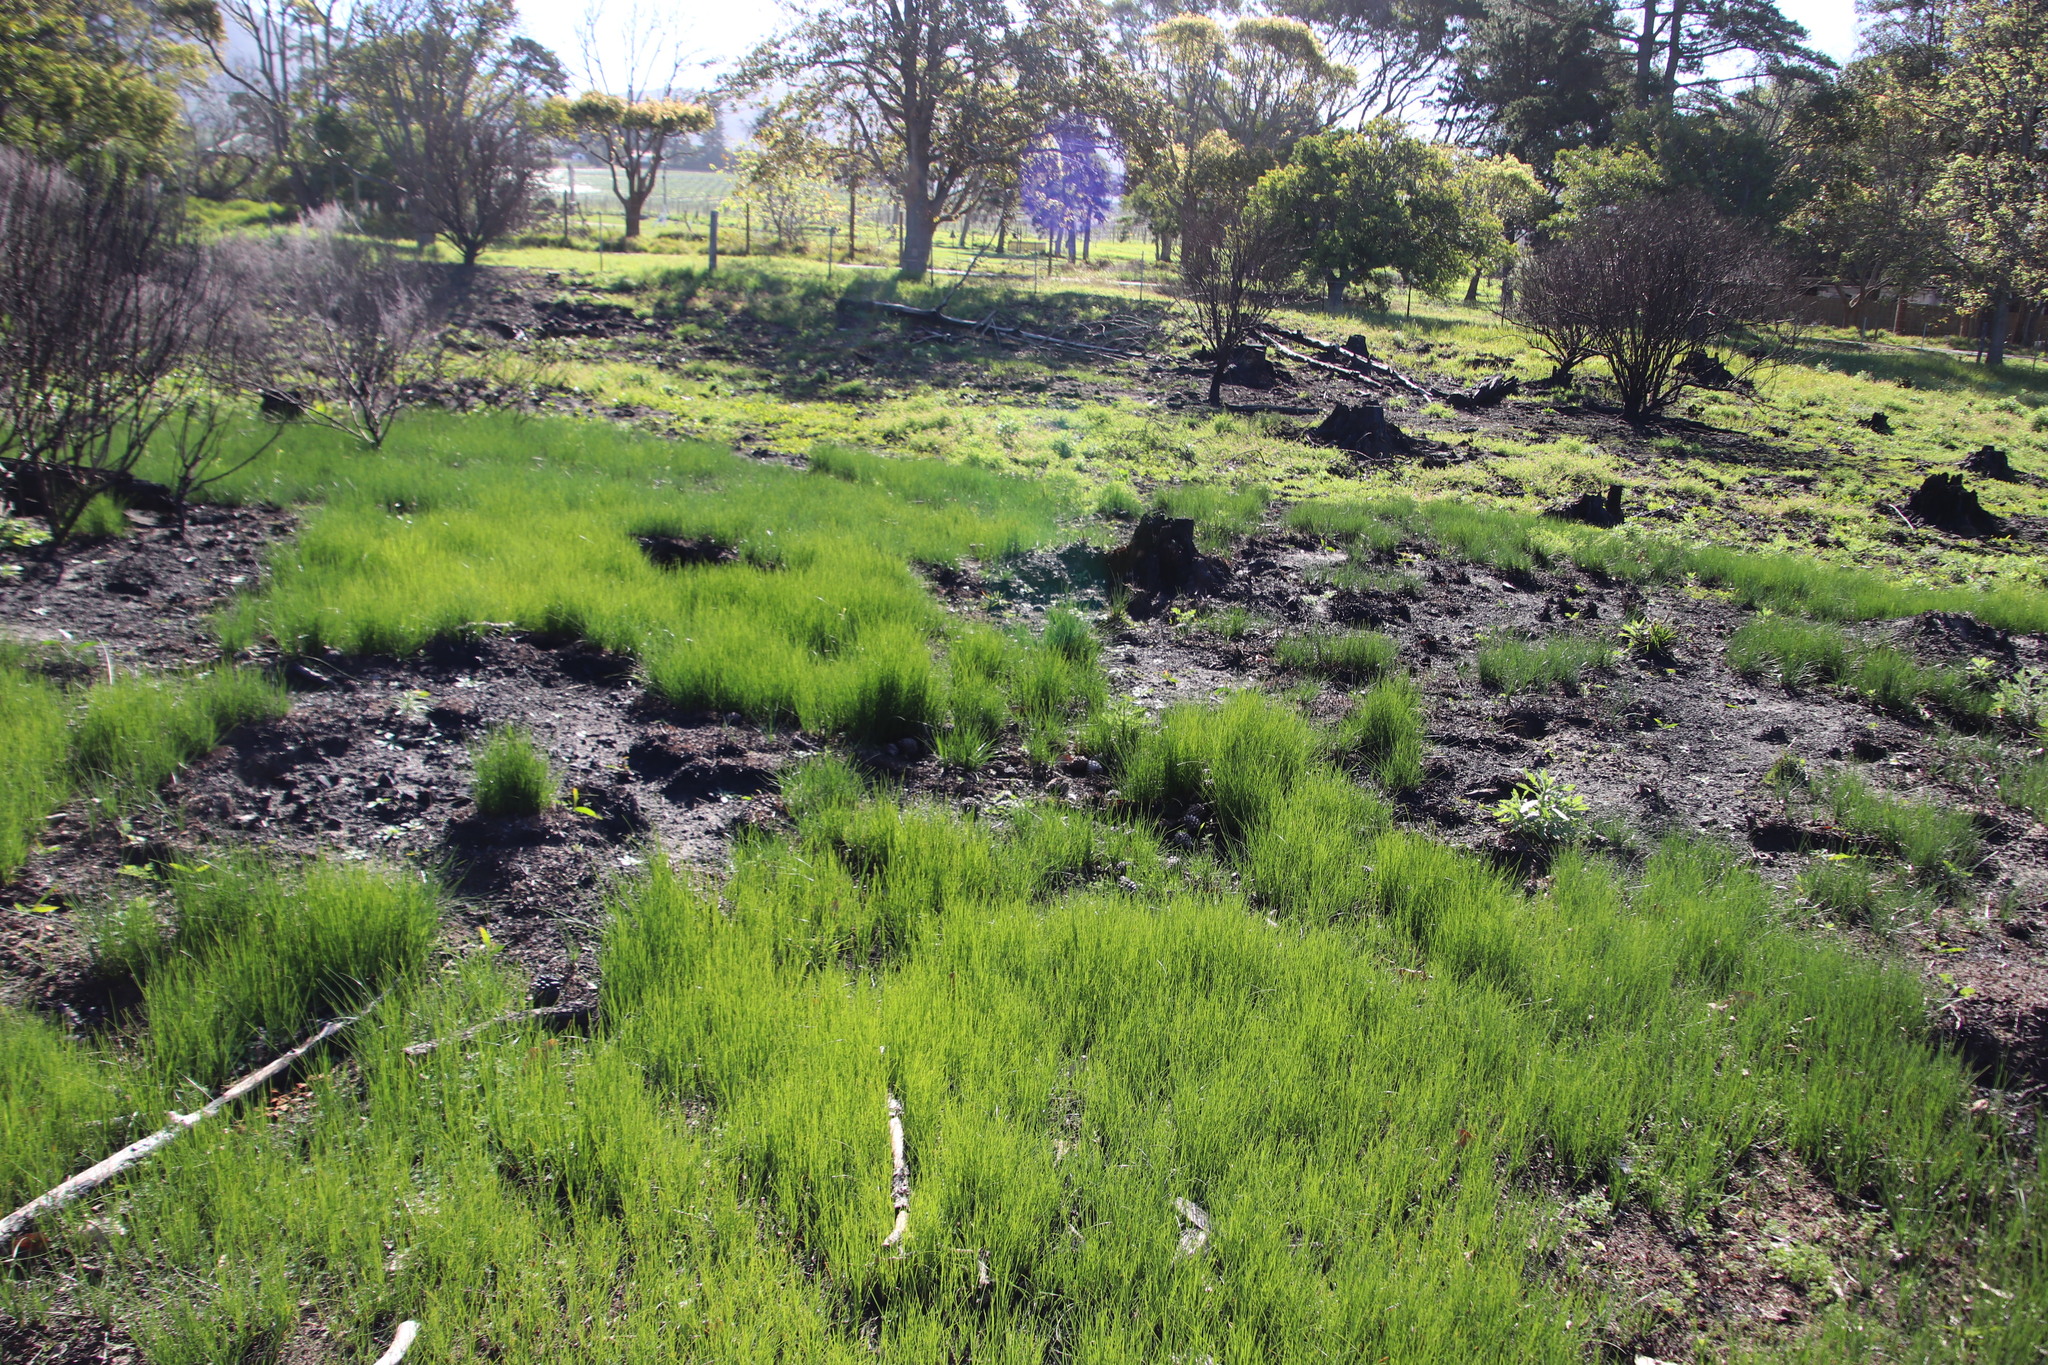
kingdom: Plantae
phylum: Tracheophyta
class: Liliopsida
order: Poales
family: Cyperaceae
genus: Cyathocoma
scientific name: Cyathocoma hexandra
